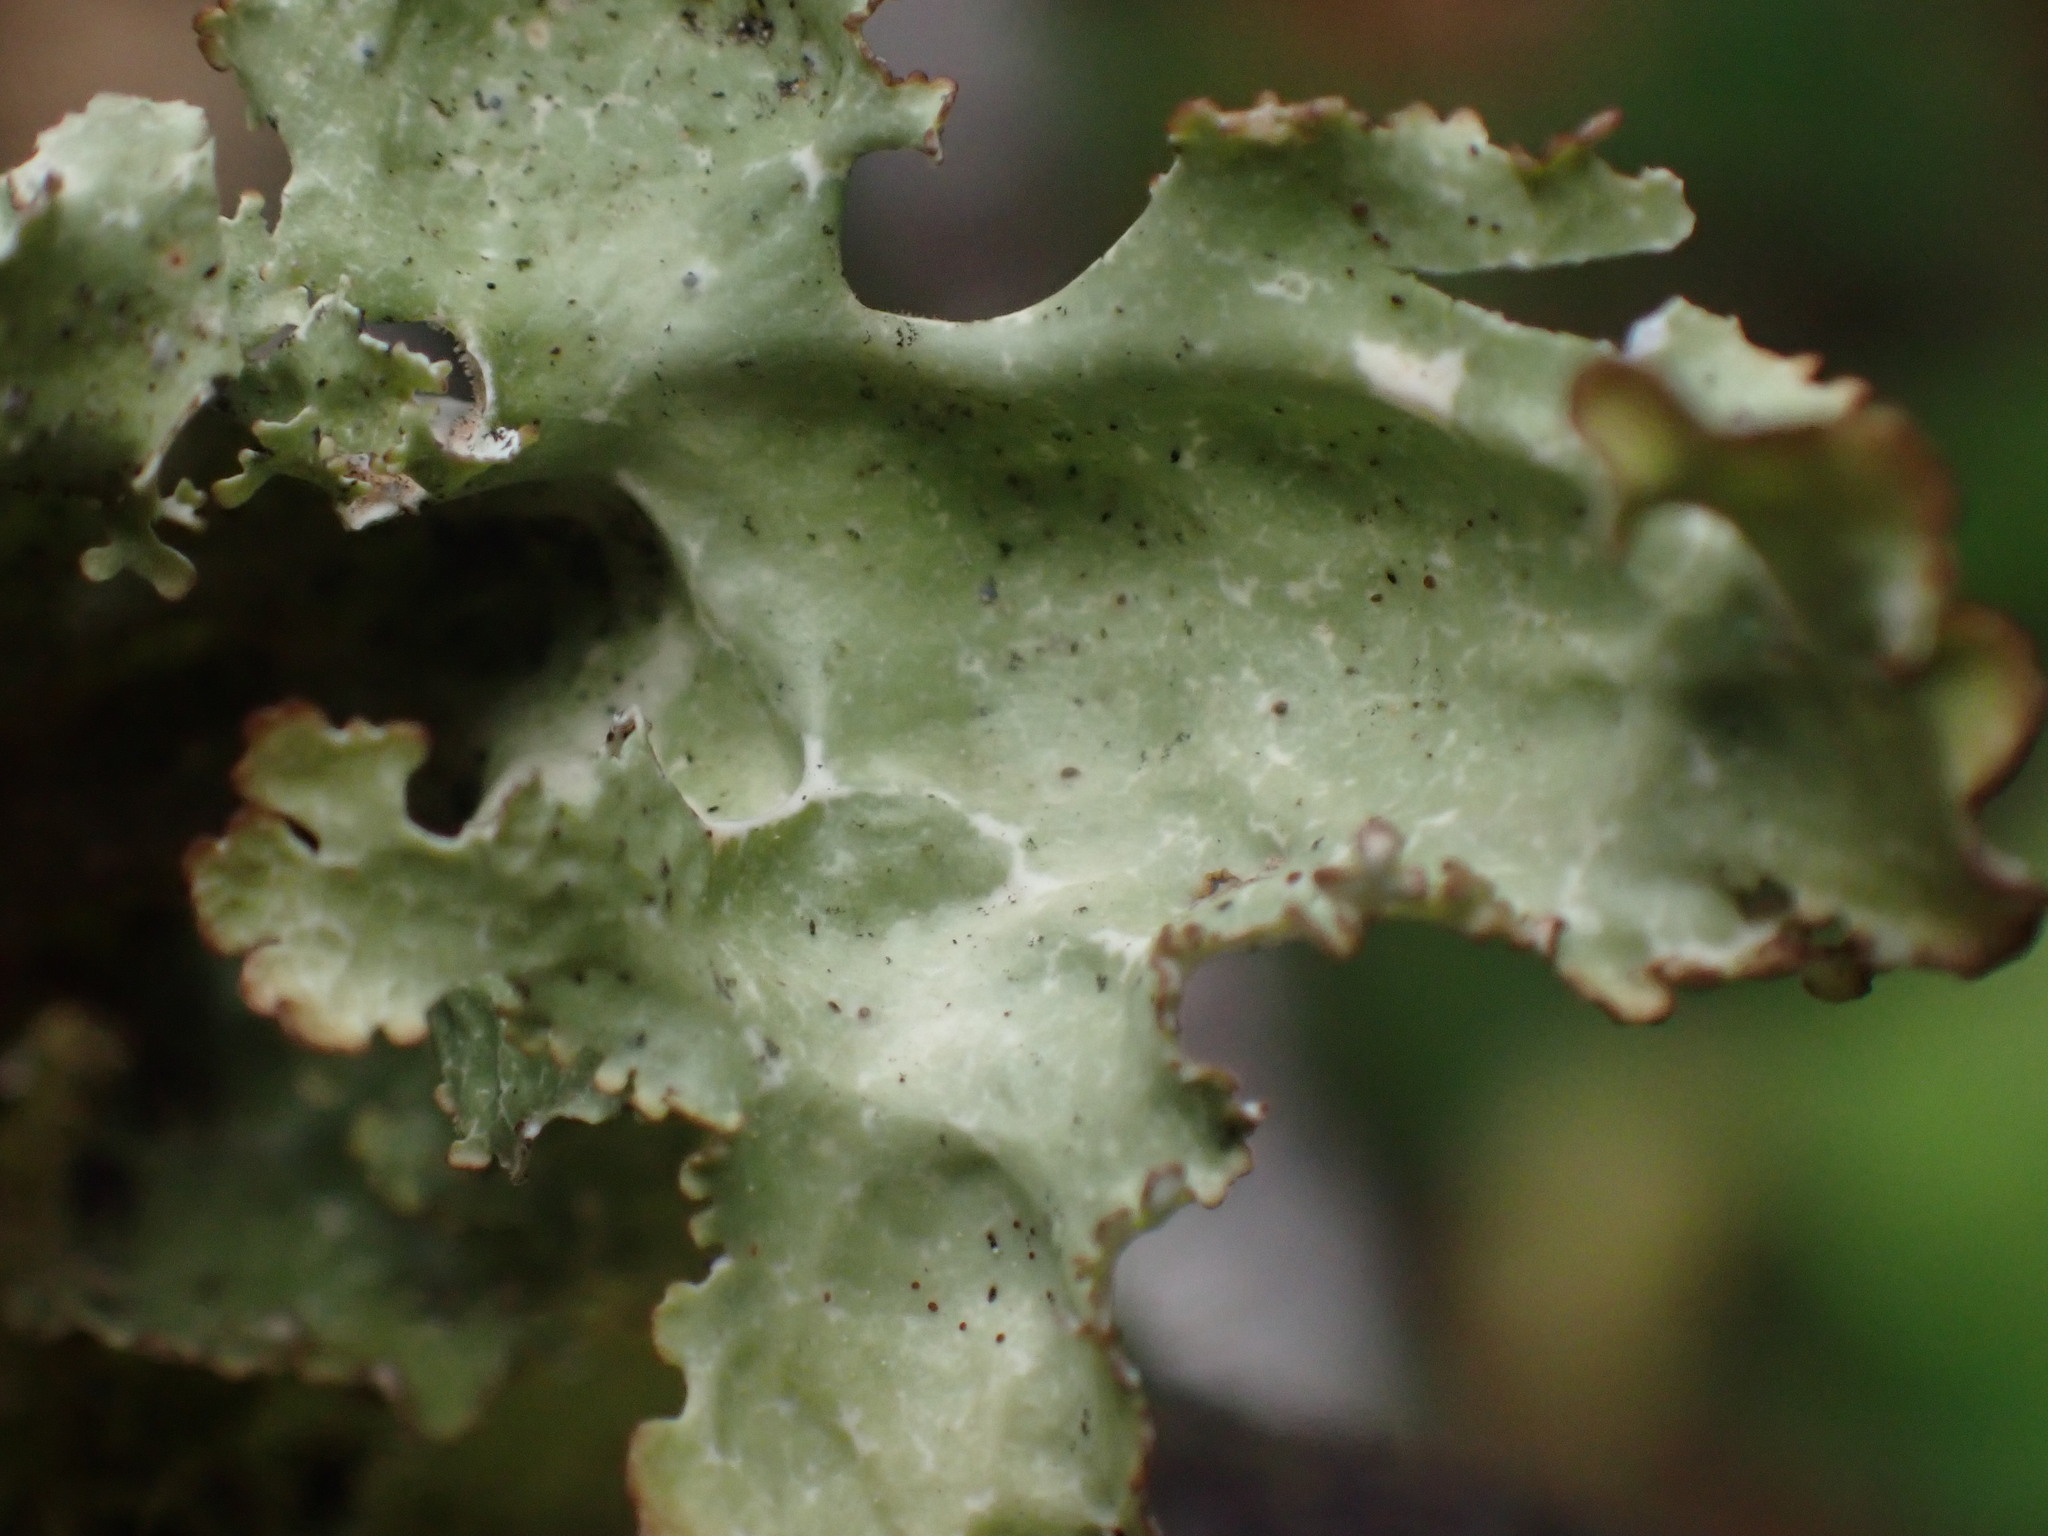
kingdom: Fungi
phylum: Ascomycota
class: Lecanoromycetes
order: Peltigerales
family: Lobariaceae
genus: Lobaria
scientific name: Lobaria oregana
